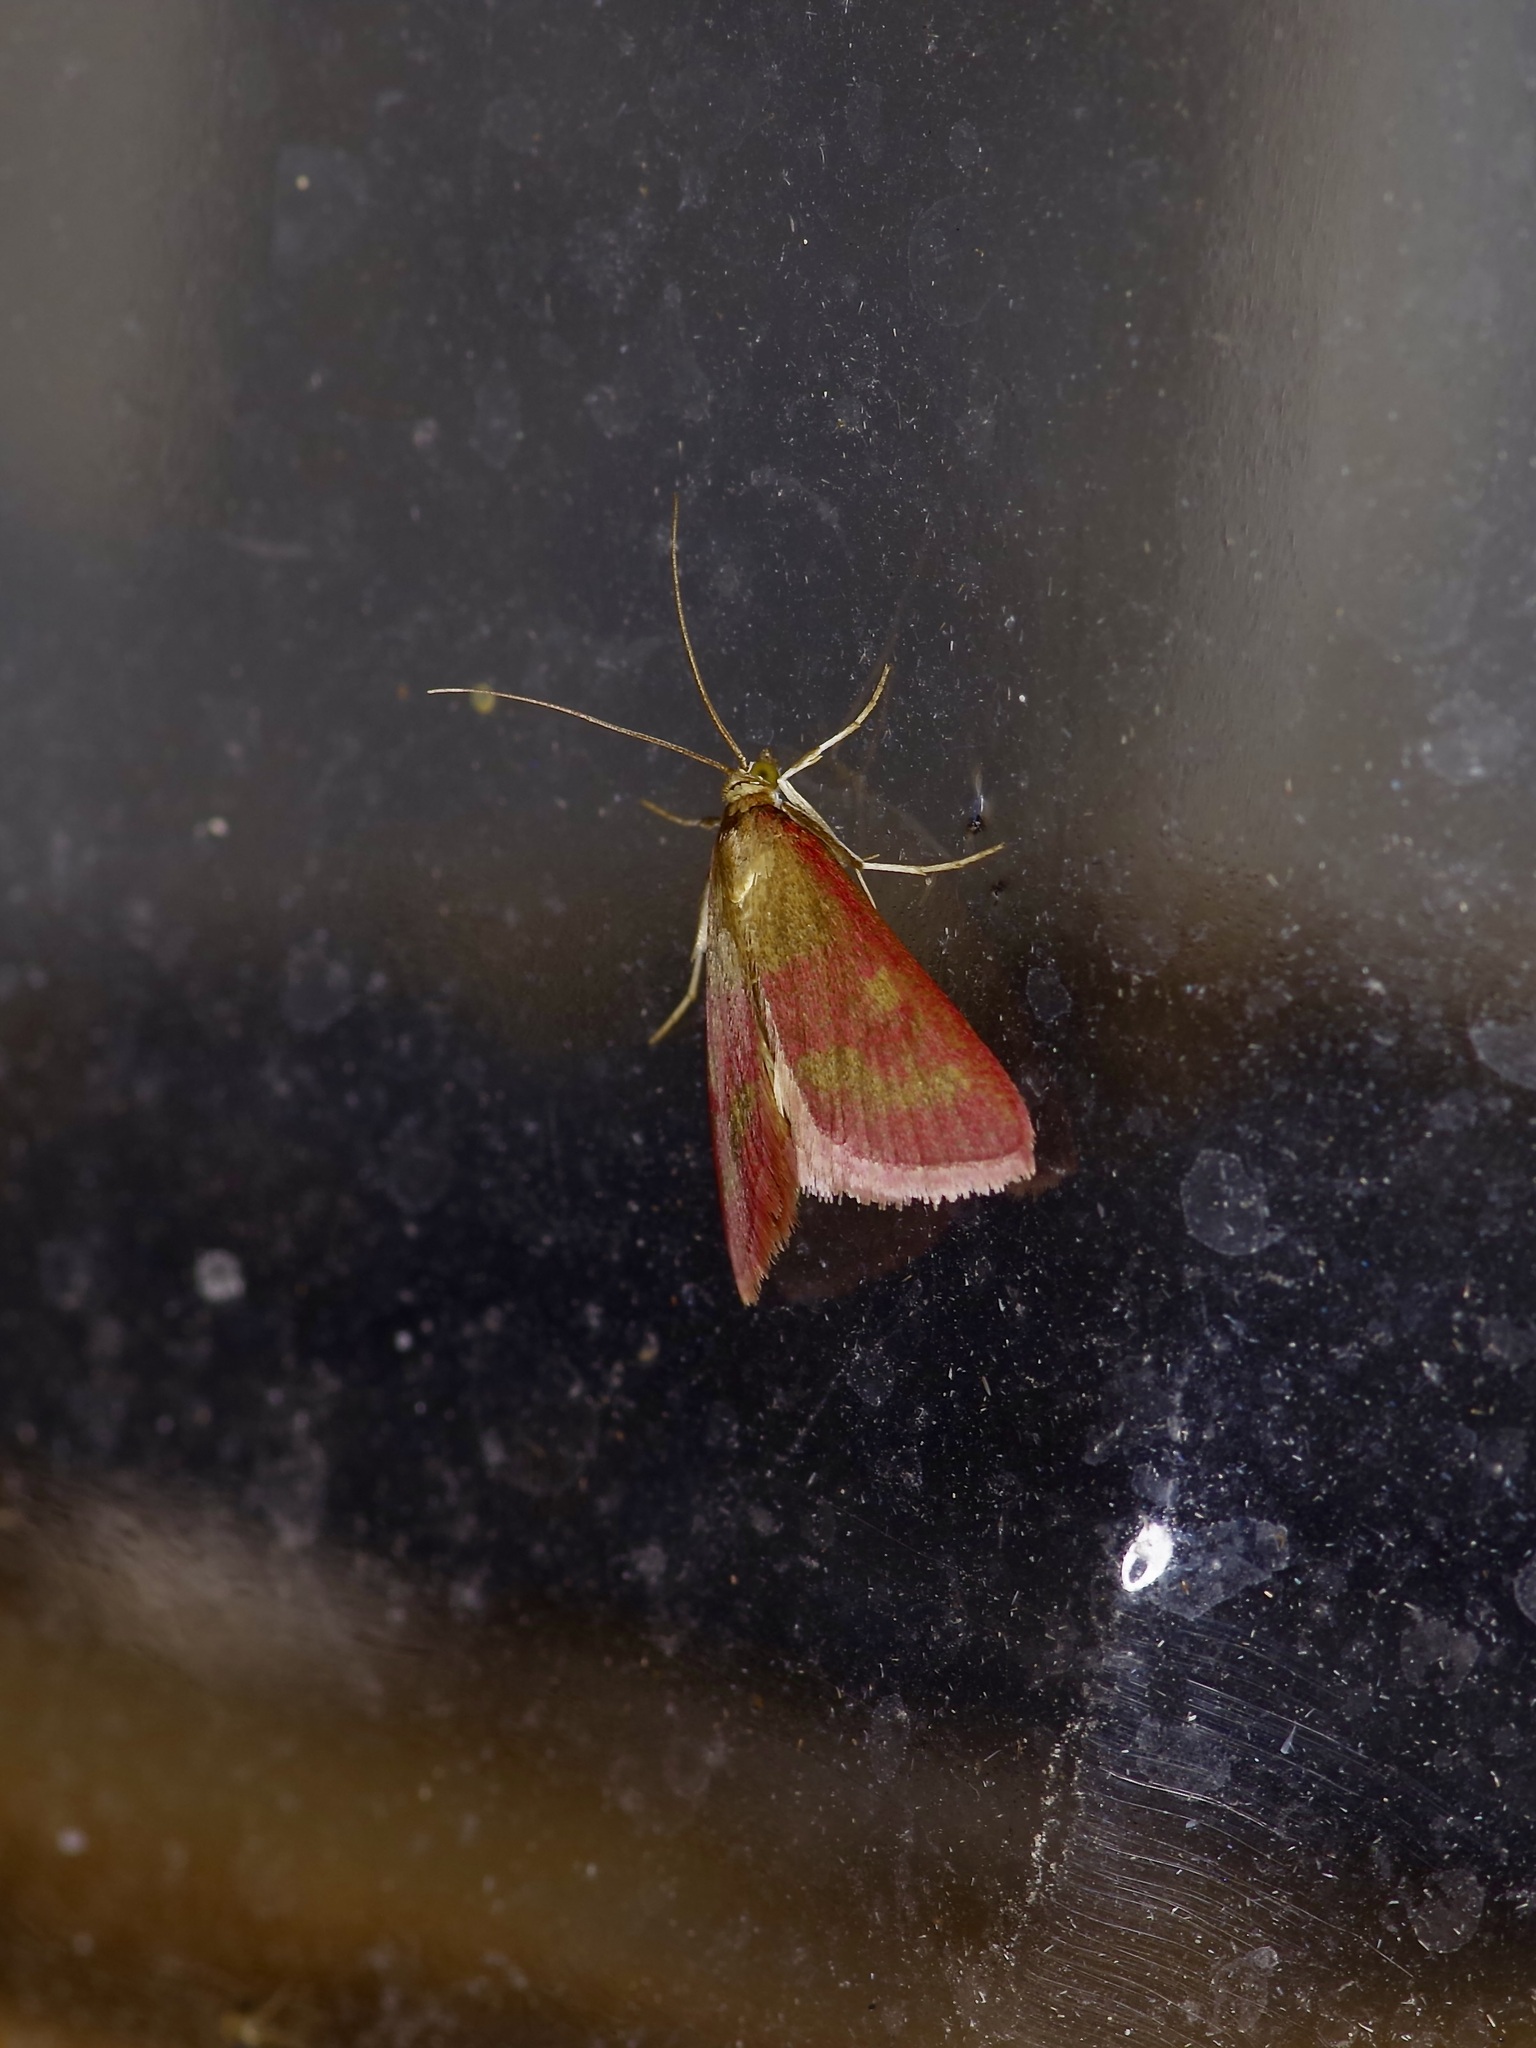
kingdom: Animalia
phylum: Arthropoda
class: Insecta
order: Lepidoptera
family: Crambidae
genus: Pyrausta
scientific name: Pyrausta laticlavia
